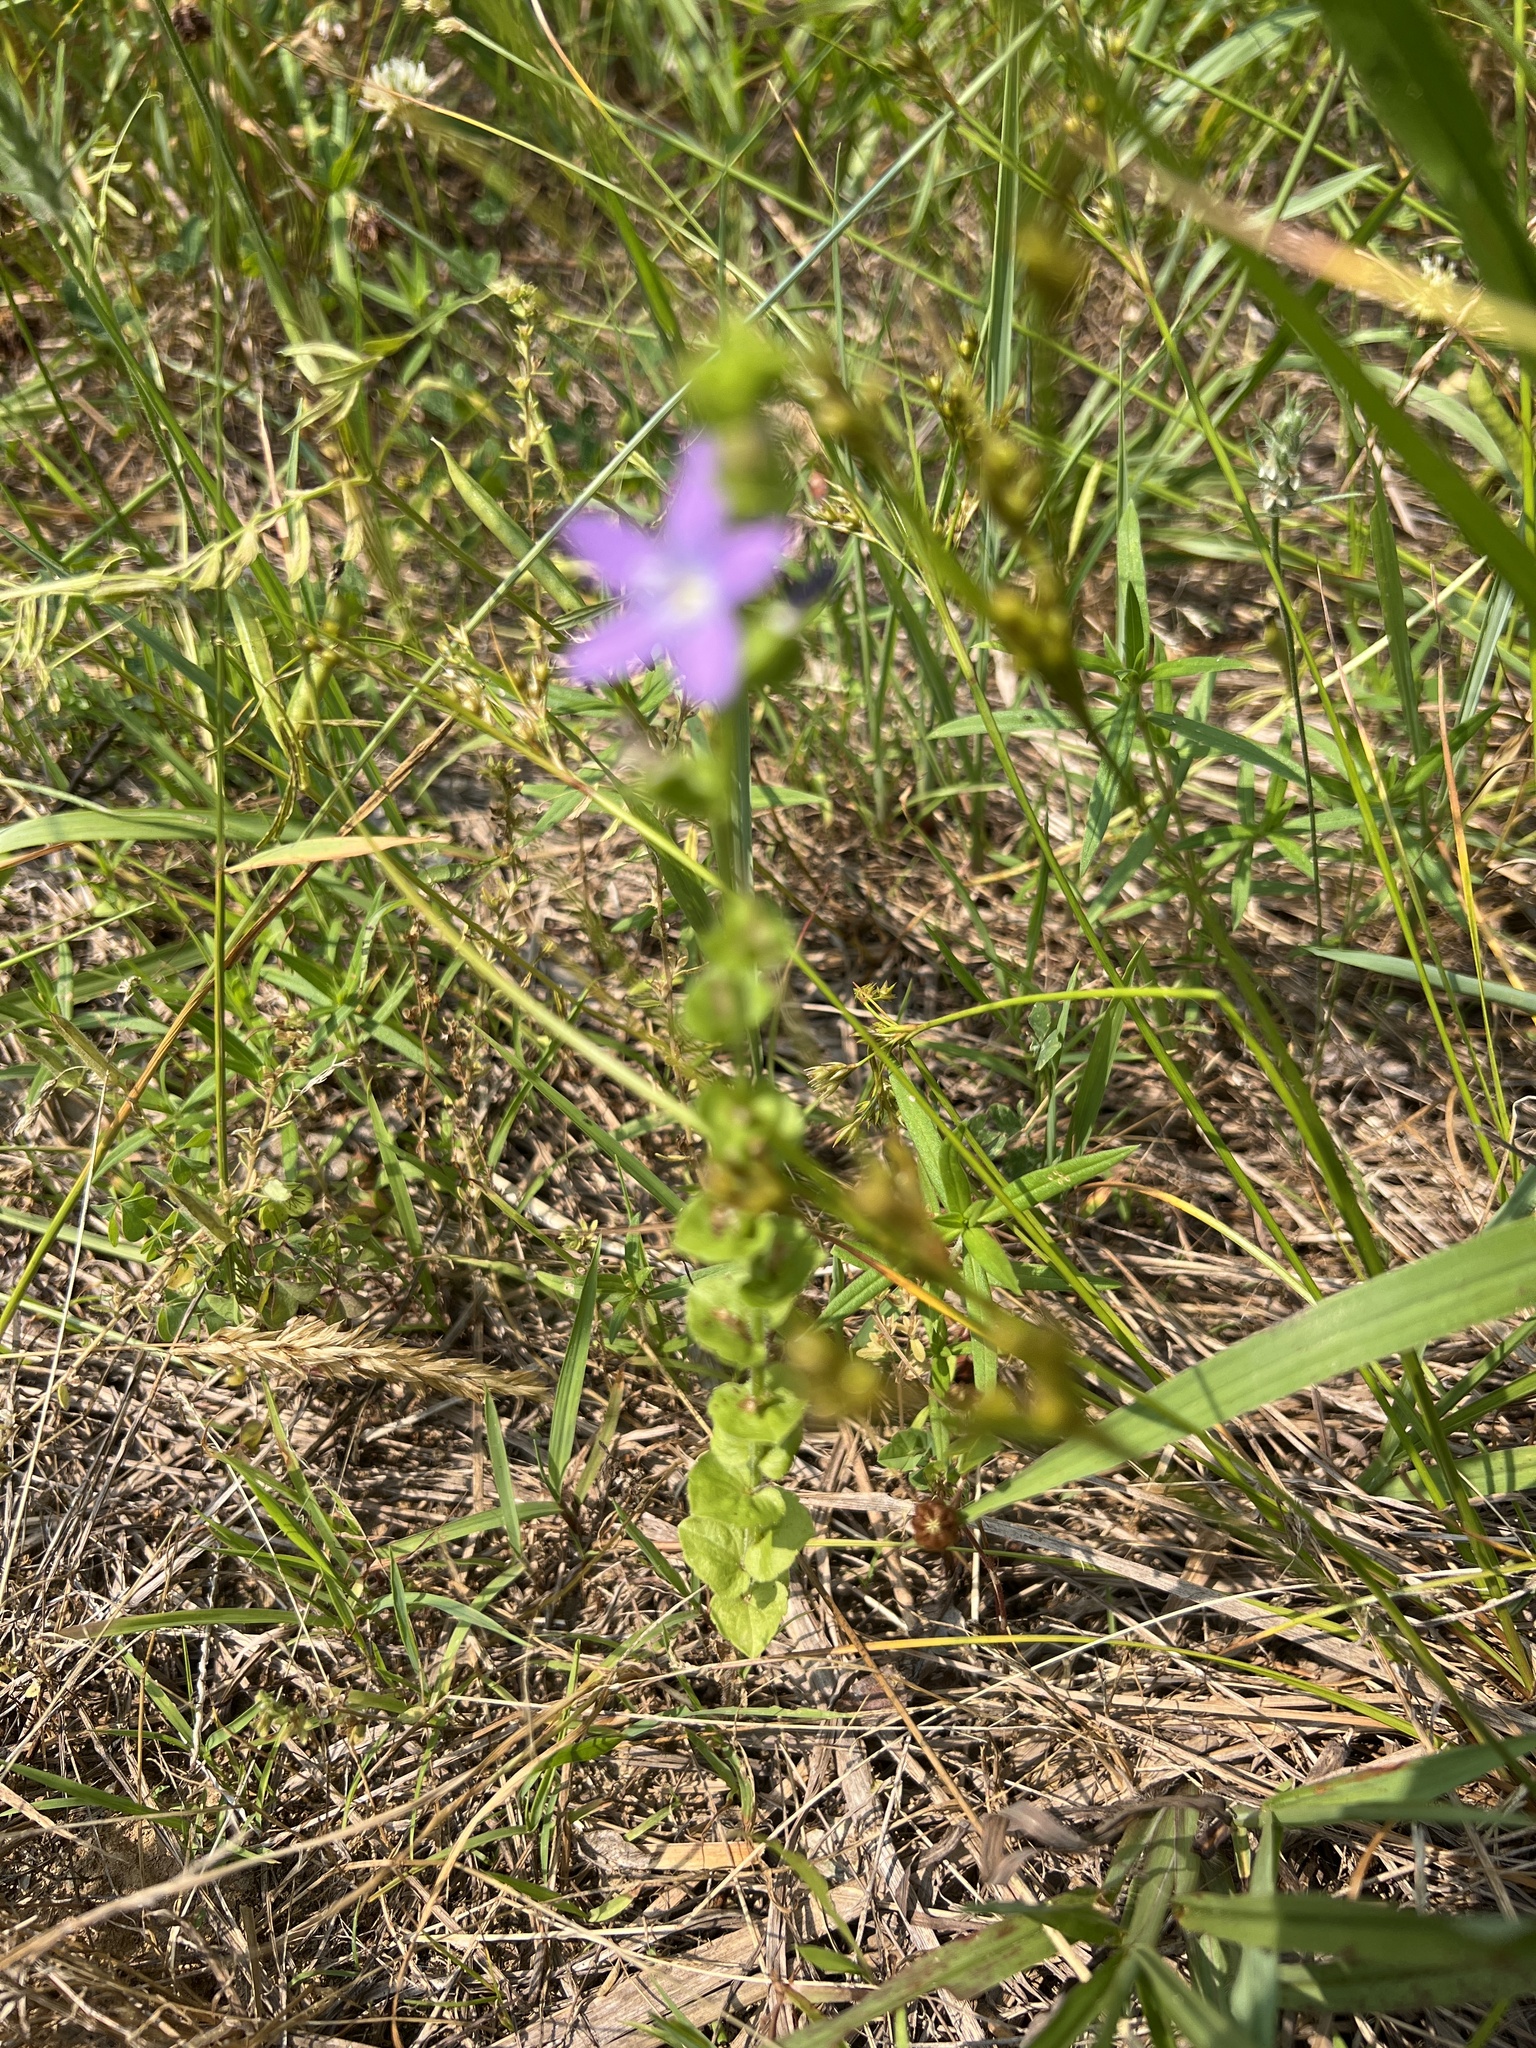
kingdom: Plantae
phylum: Tracheophyta
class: Magnoliopsida
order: Asterales
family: Campanulaceae
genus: Triodanis
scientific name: Triodanis perfoliata
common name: Clasping venus' looking-glass
